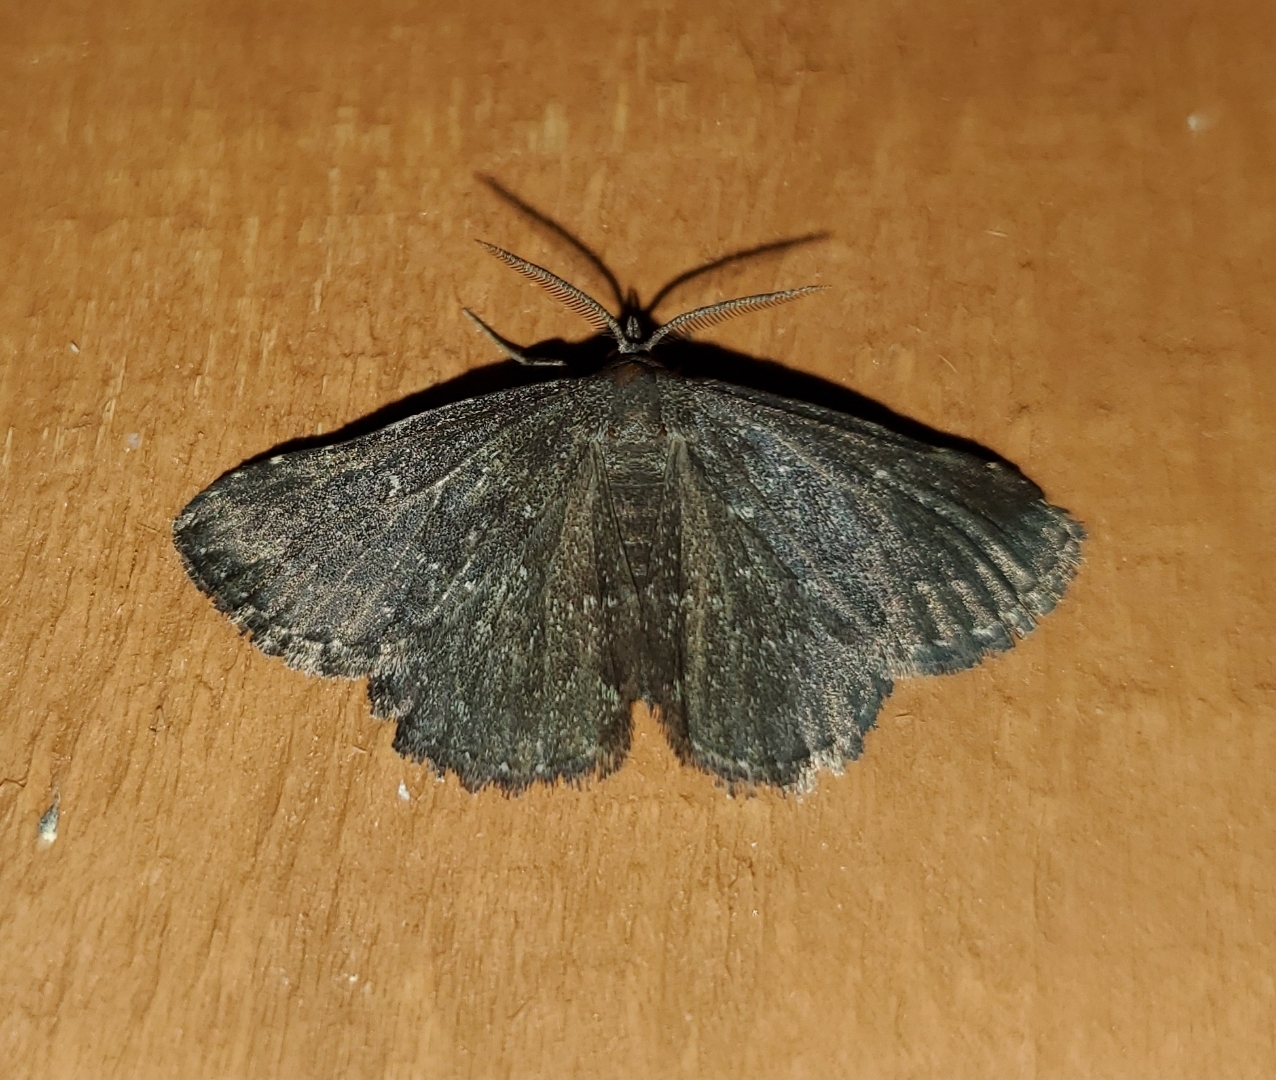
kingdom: Animalia
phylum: Arthropoda
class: Insecta
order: Lepidoptera
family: Erebidae
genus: Prosoparia
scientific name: Prosoparia floridana
